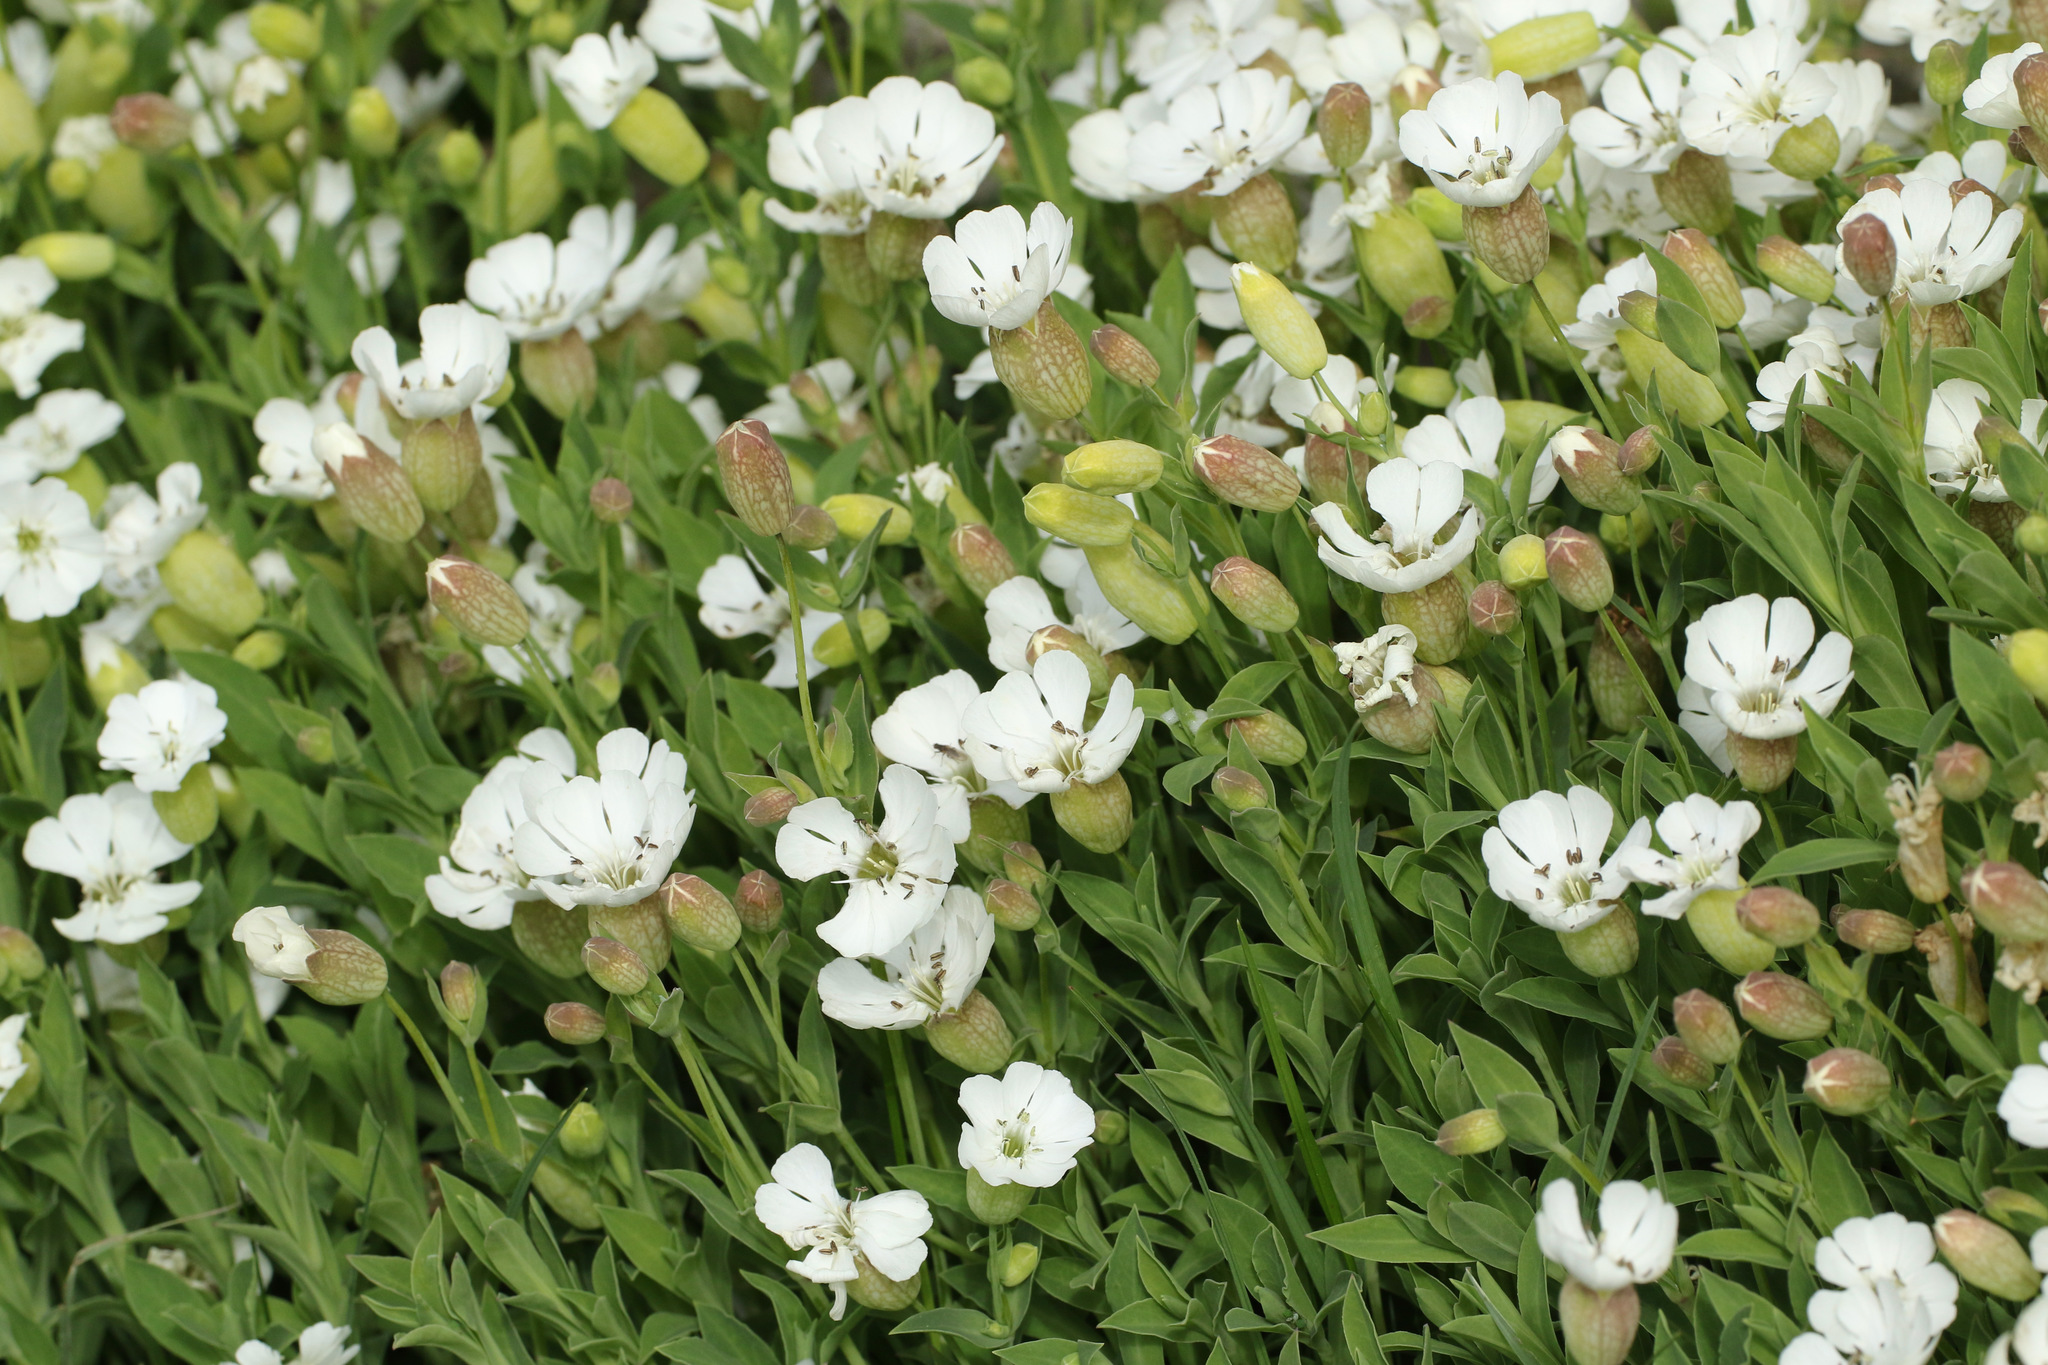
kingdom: Plantae
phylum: Tracheophyta
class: Magnoliopsida
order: Caryophyllales
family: Caryophyllaceae
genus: Silene
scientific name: Silene uniflora
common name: Sea campion
